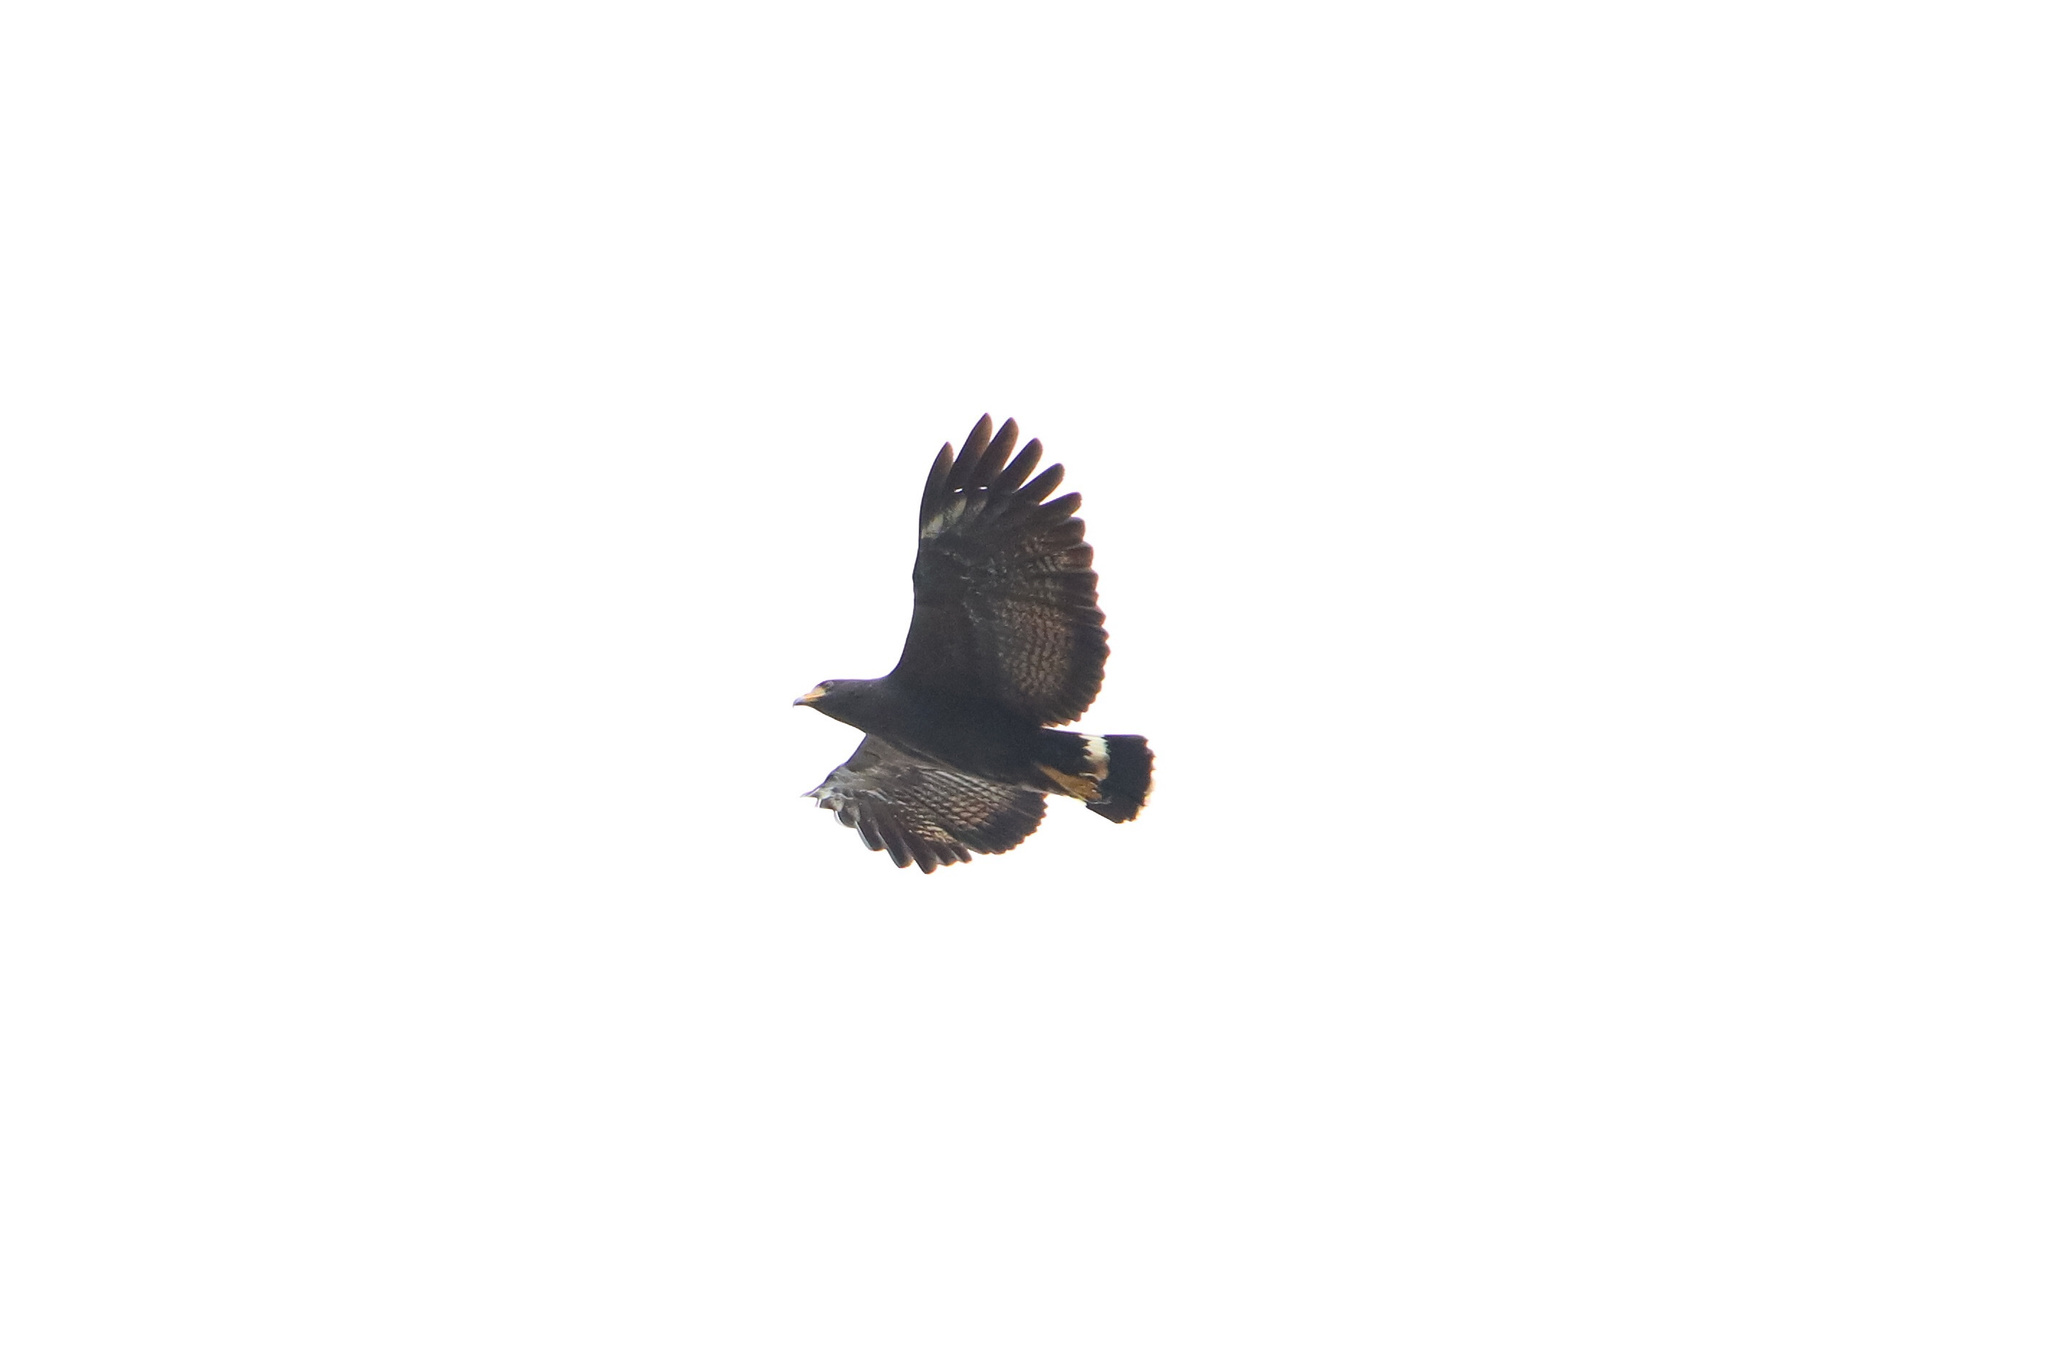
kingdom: Animalia
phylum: Chordata
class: Aves
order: Accipitriformes
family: Accipitridae
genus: Buteogallus
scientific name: Buteogallus anthracinus
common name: Common black hawk
